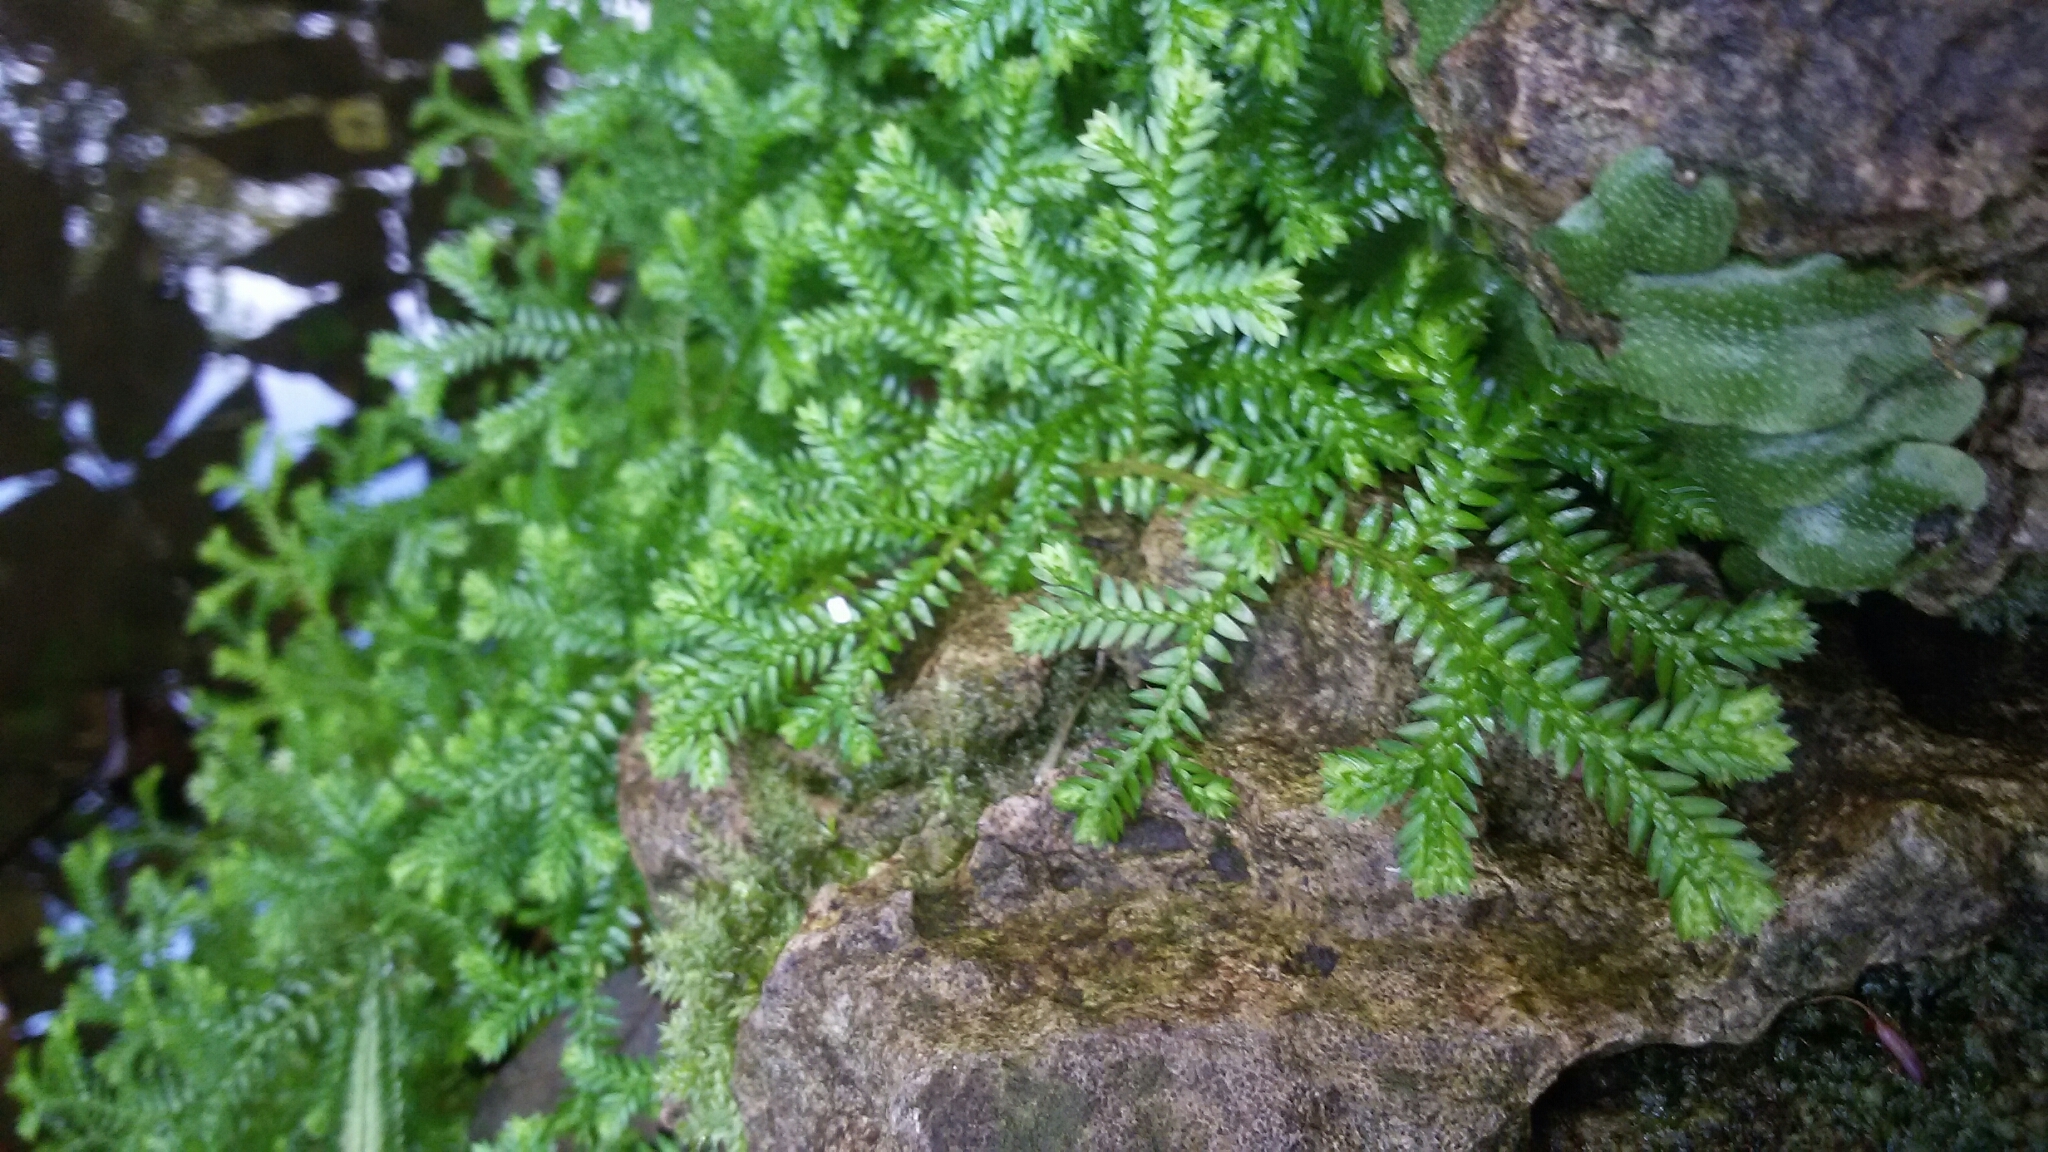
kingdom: Plantae
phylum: Tracheophyta
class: Lycopodiopsida
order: Selaginellales
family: Selaginellaceae
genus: Selaginella
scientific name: Selaginella kraussiana
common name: Krauss' spikemoss
